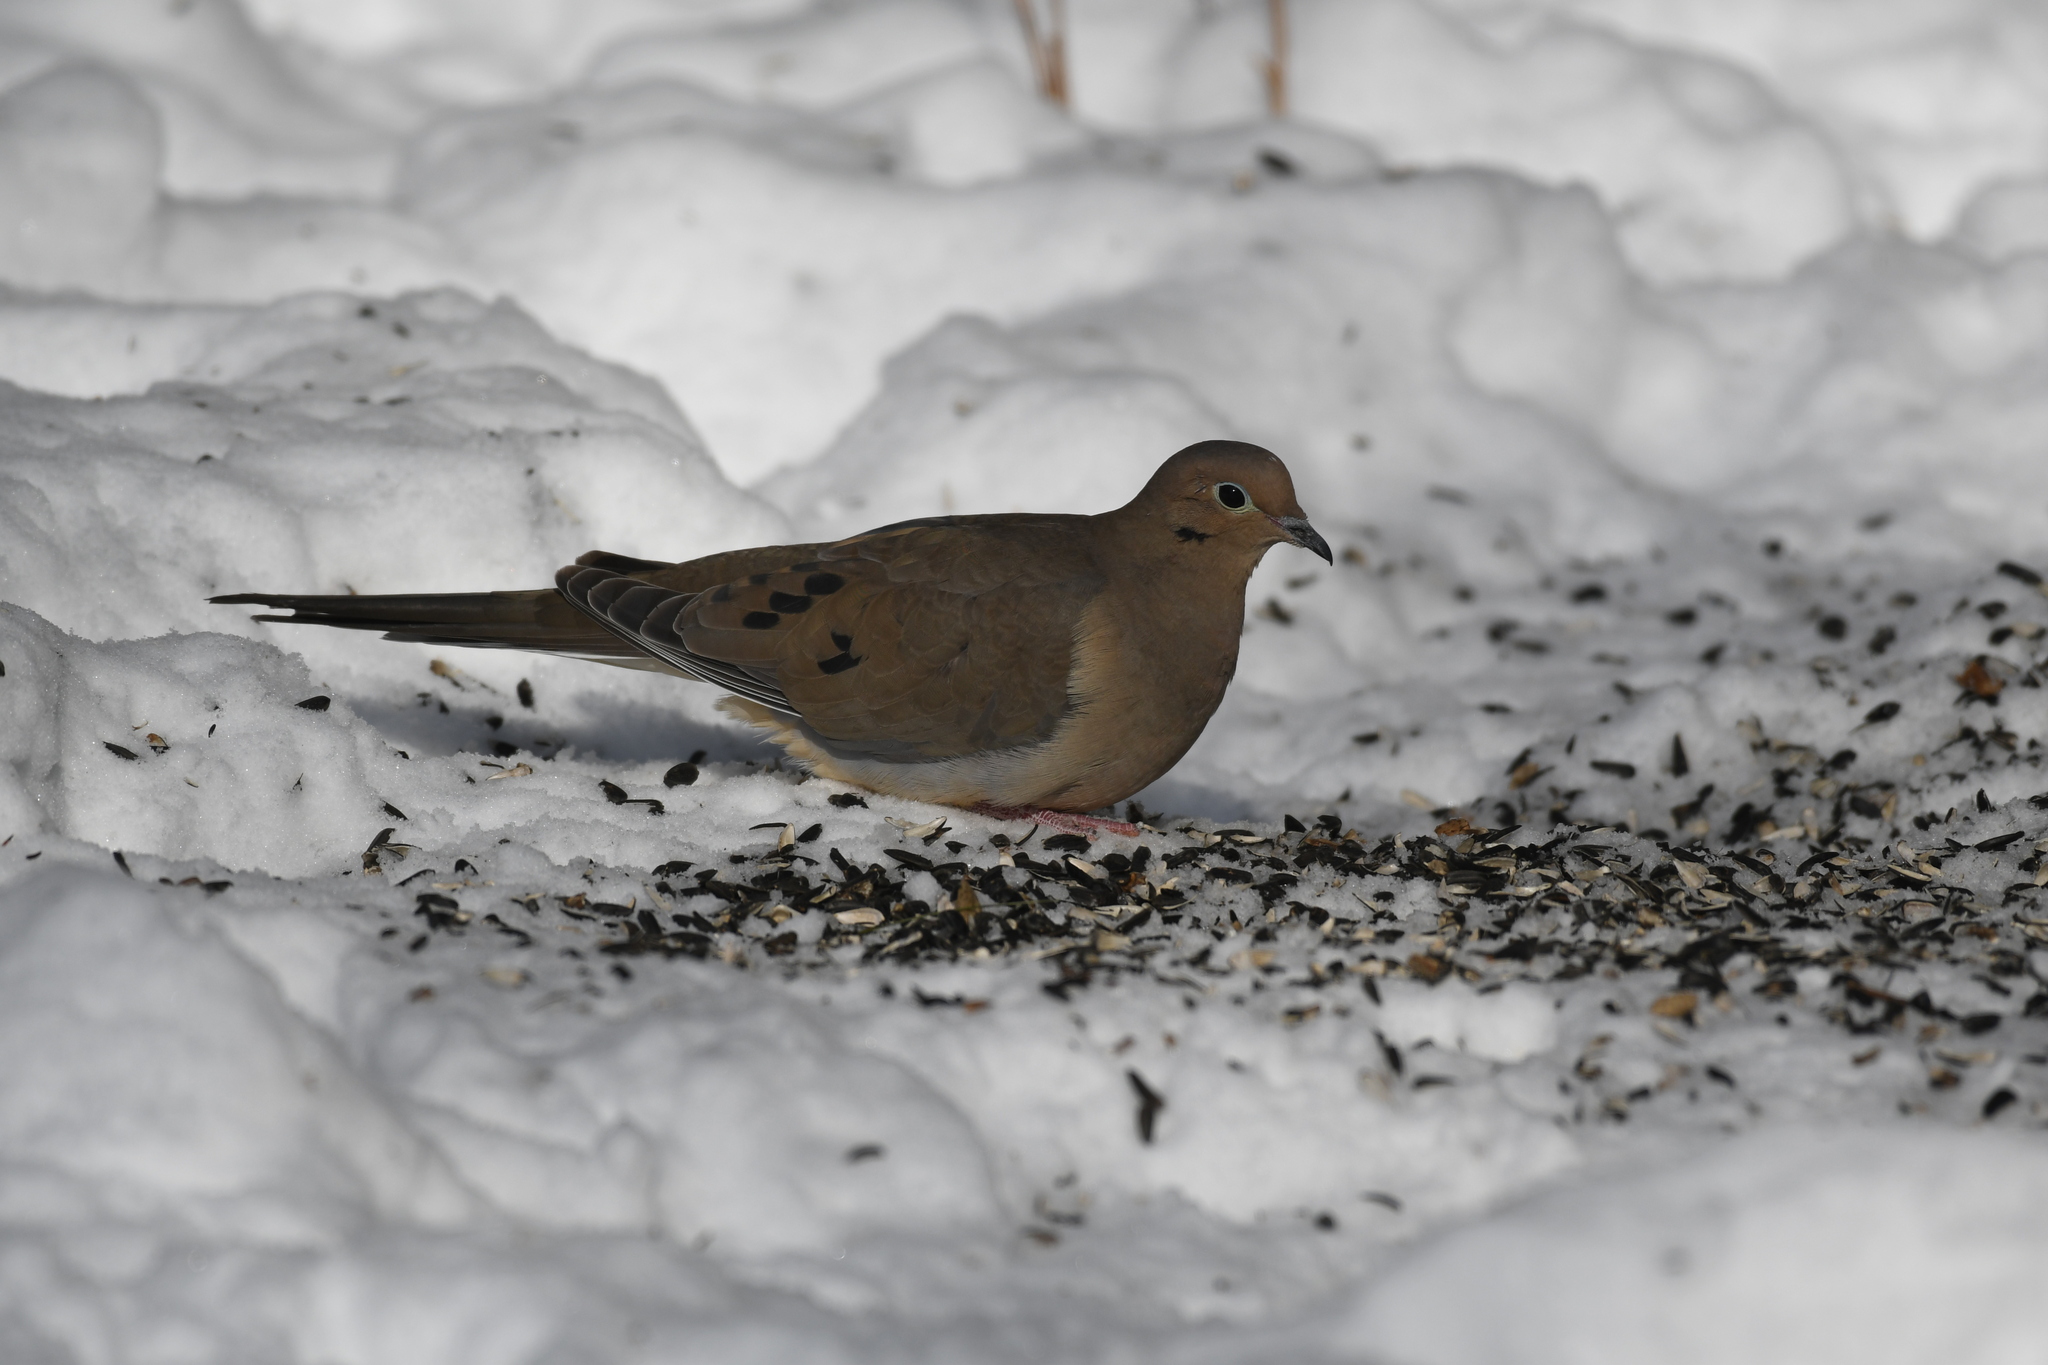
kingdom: Animalia
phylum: Chordata
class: Aves
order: Columbiformes
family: Columbidae
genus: Zenaida
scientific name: Zenaida macroura
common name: Mourning dove
